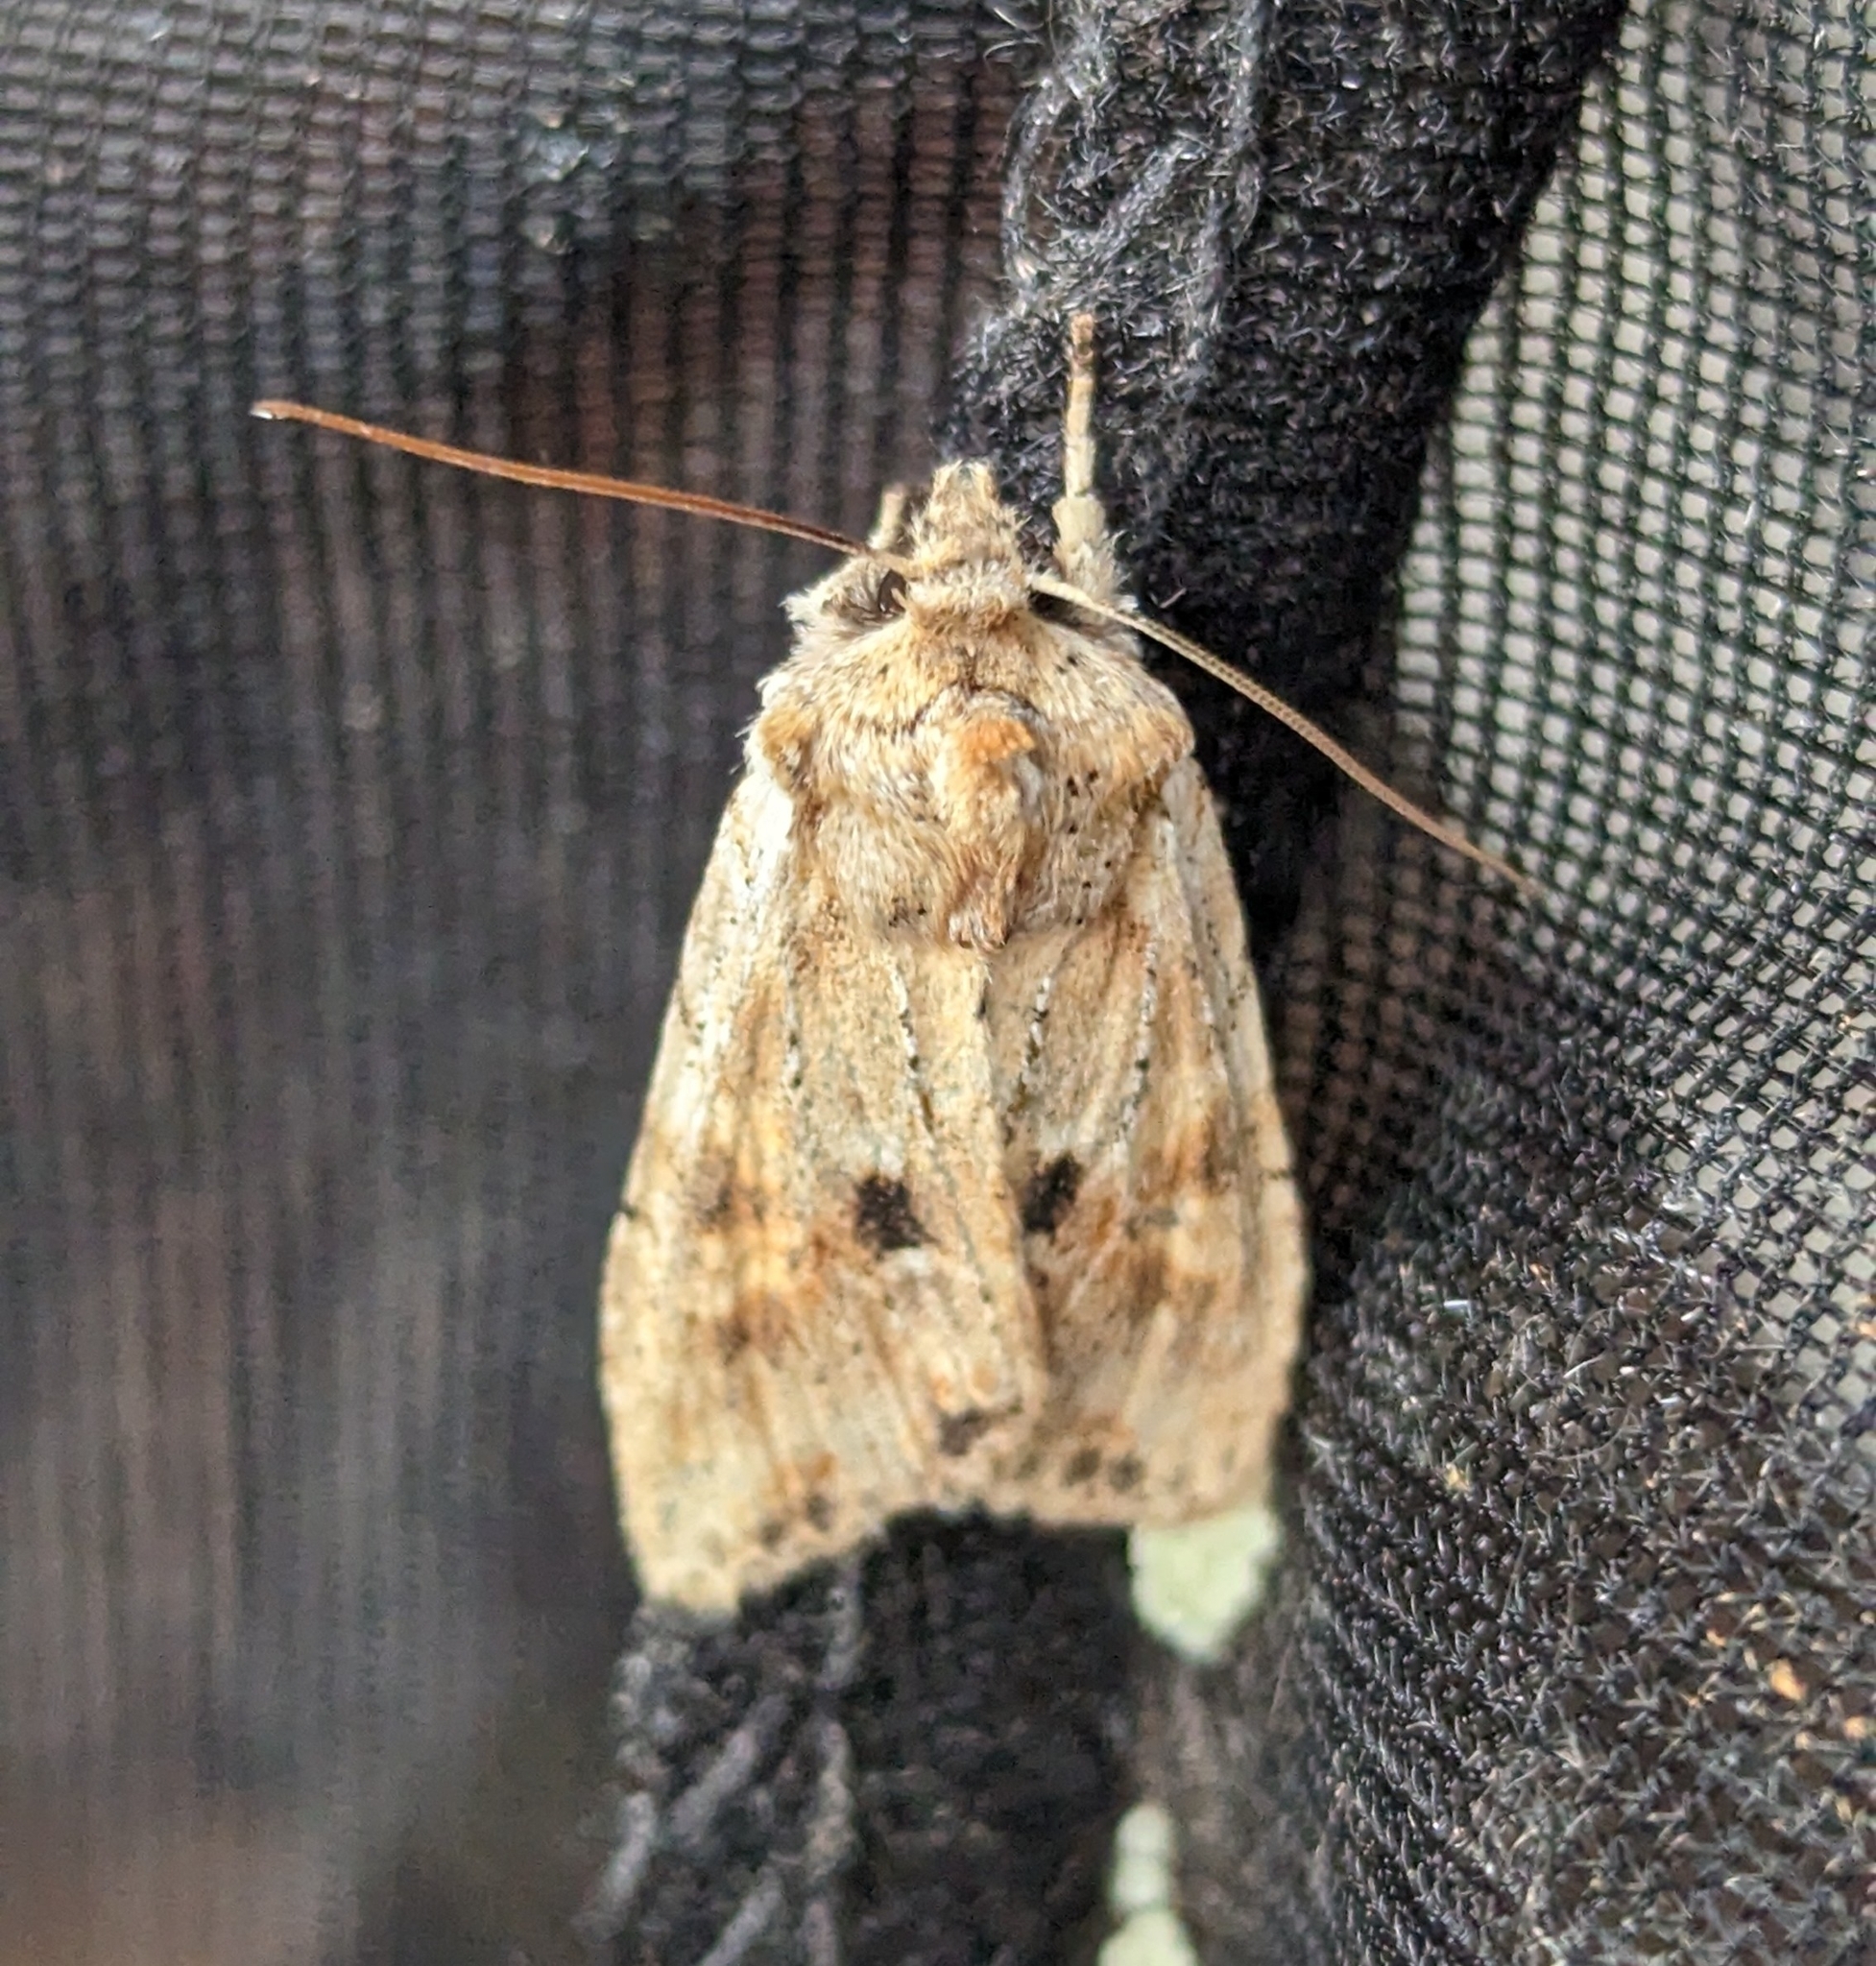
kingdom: Animalia
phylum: Arthropoda
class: Insecta
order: Lepidoptera
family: Noctuidae
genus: Lithophane
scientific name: Lithophane innominata
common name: Nameless pinion moth
